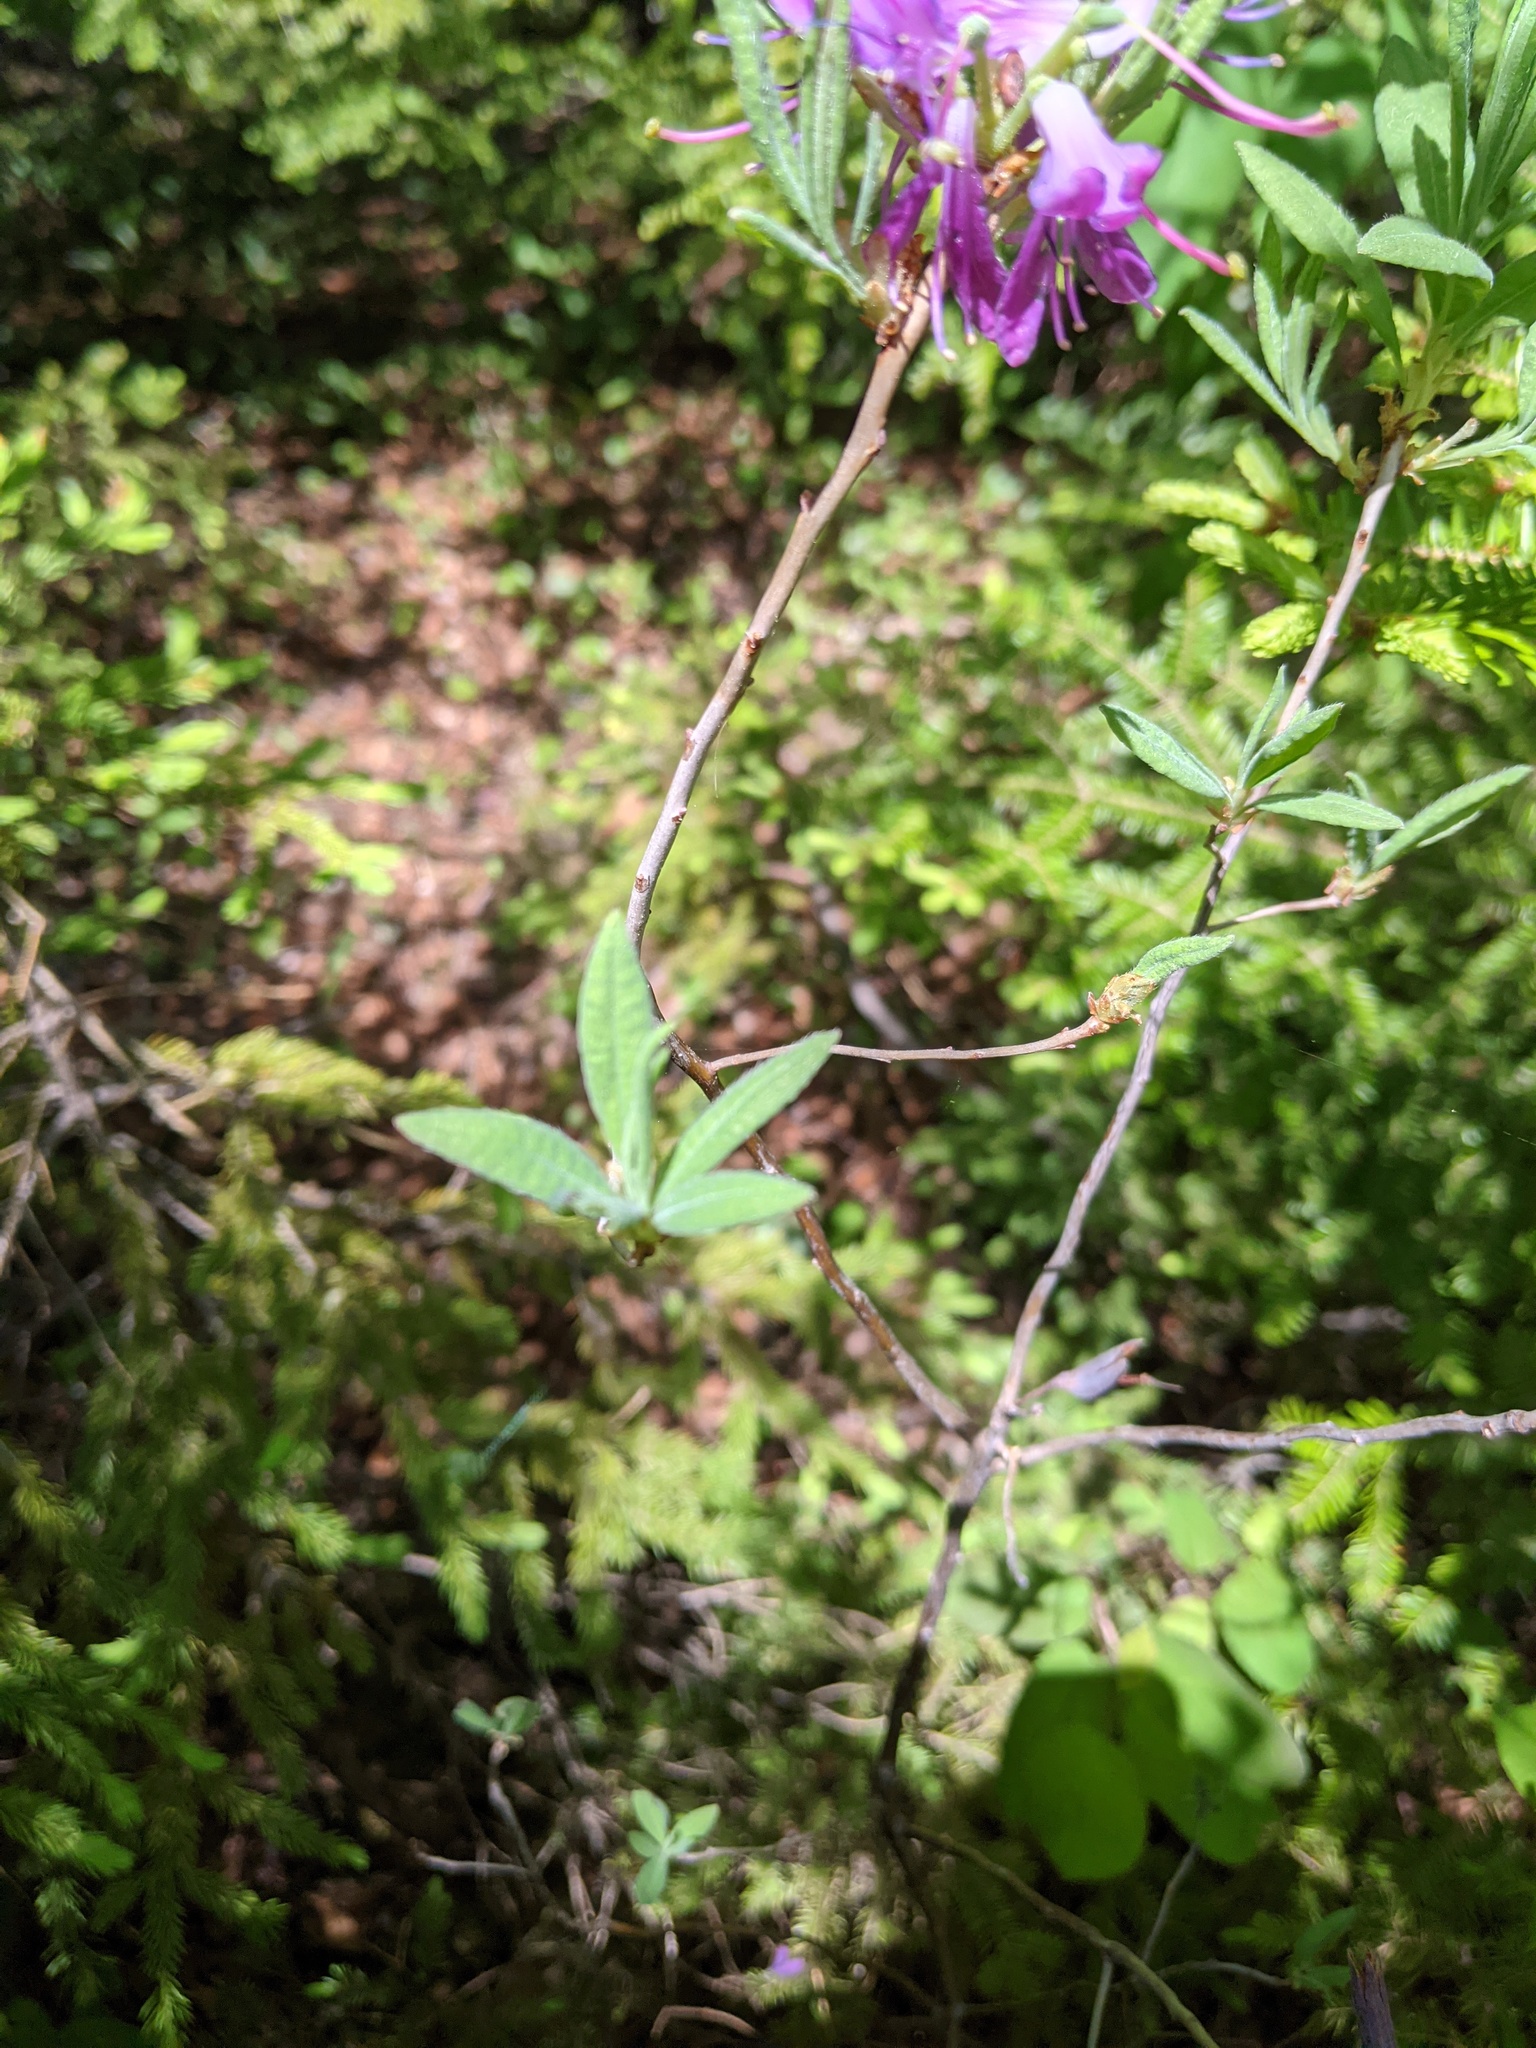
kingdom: Plantae
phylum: Tracheophyta
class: Magnoliopsida
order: Ericales
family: Ericaceae
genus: Rhododendron
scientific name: Rhododendron canadense
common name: Rhodora
